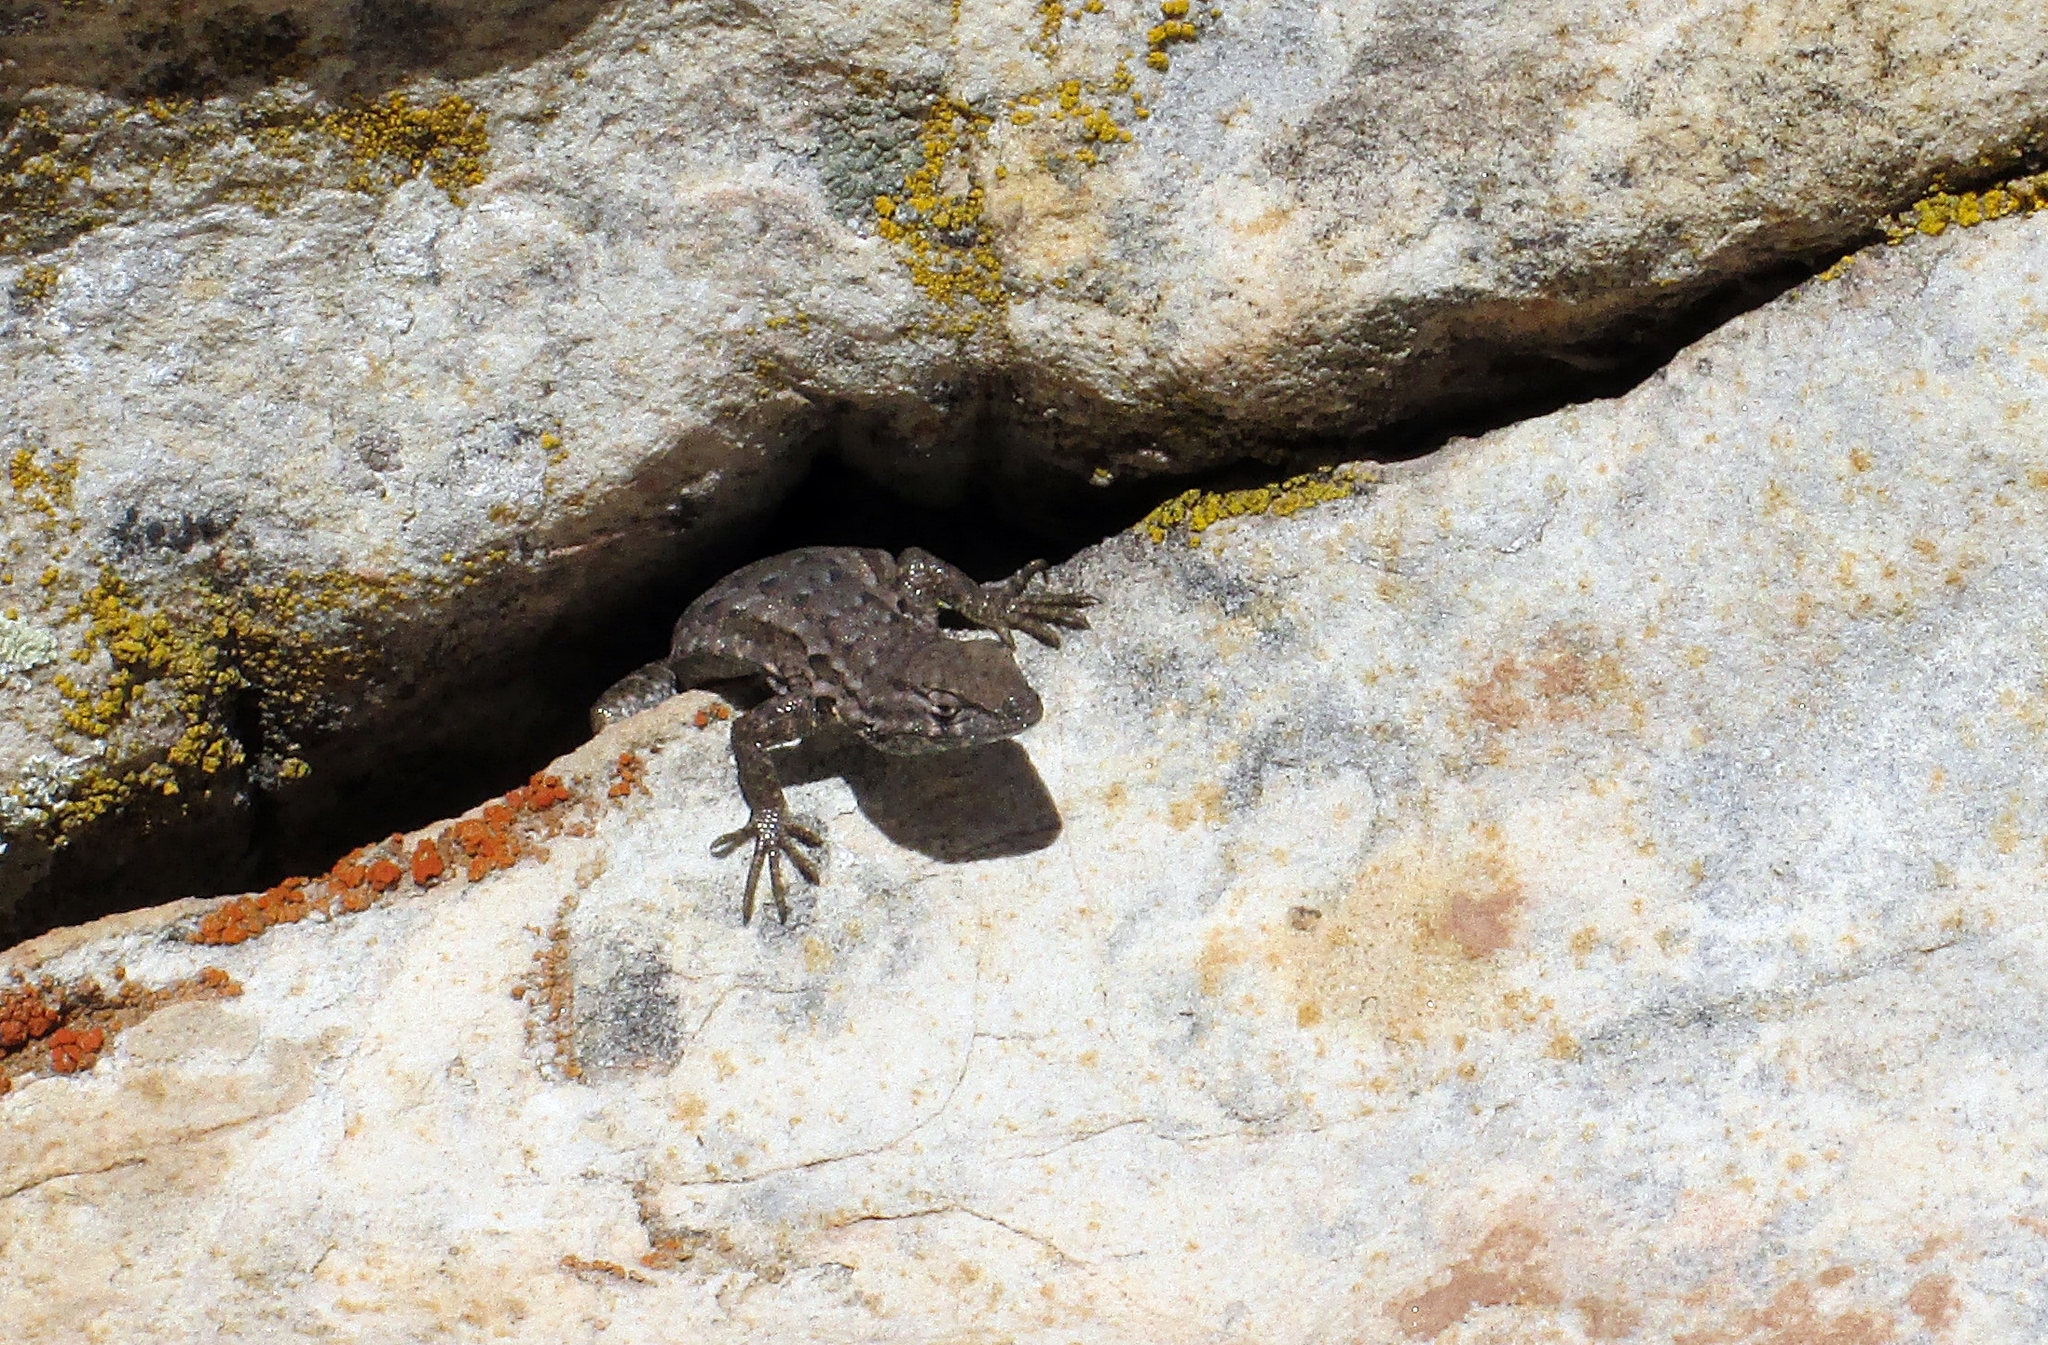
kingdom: Animalia
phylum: Chordata
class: Squamata
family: Phrynosomatidae
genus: Uta
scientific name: Uta stansburiana
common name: Side-blotched lizard
